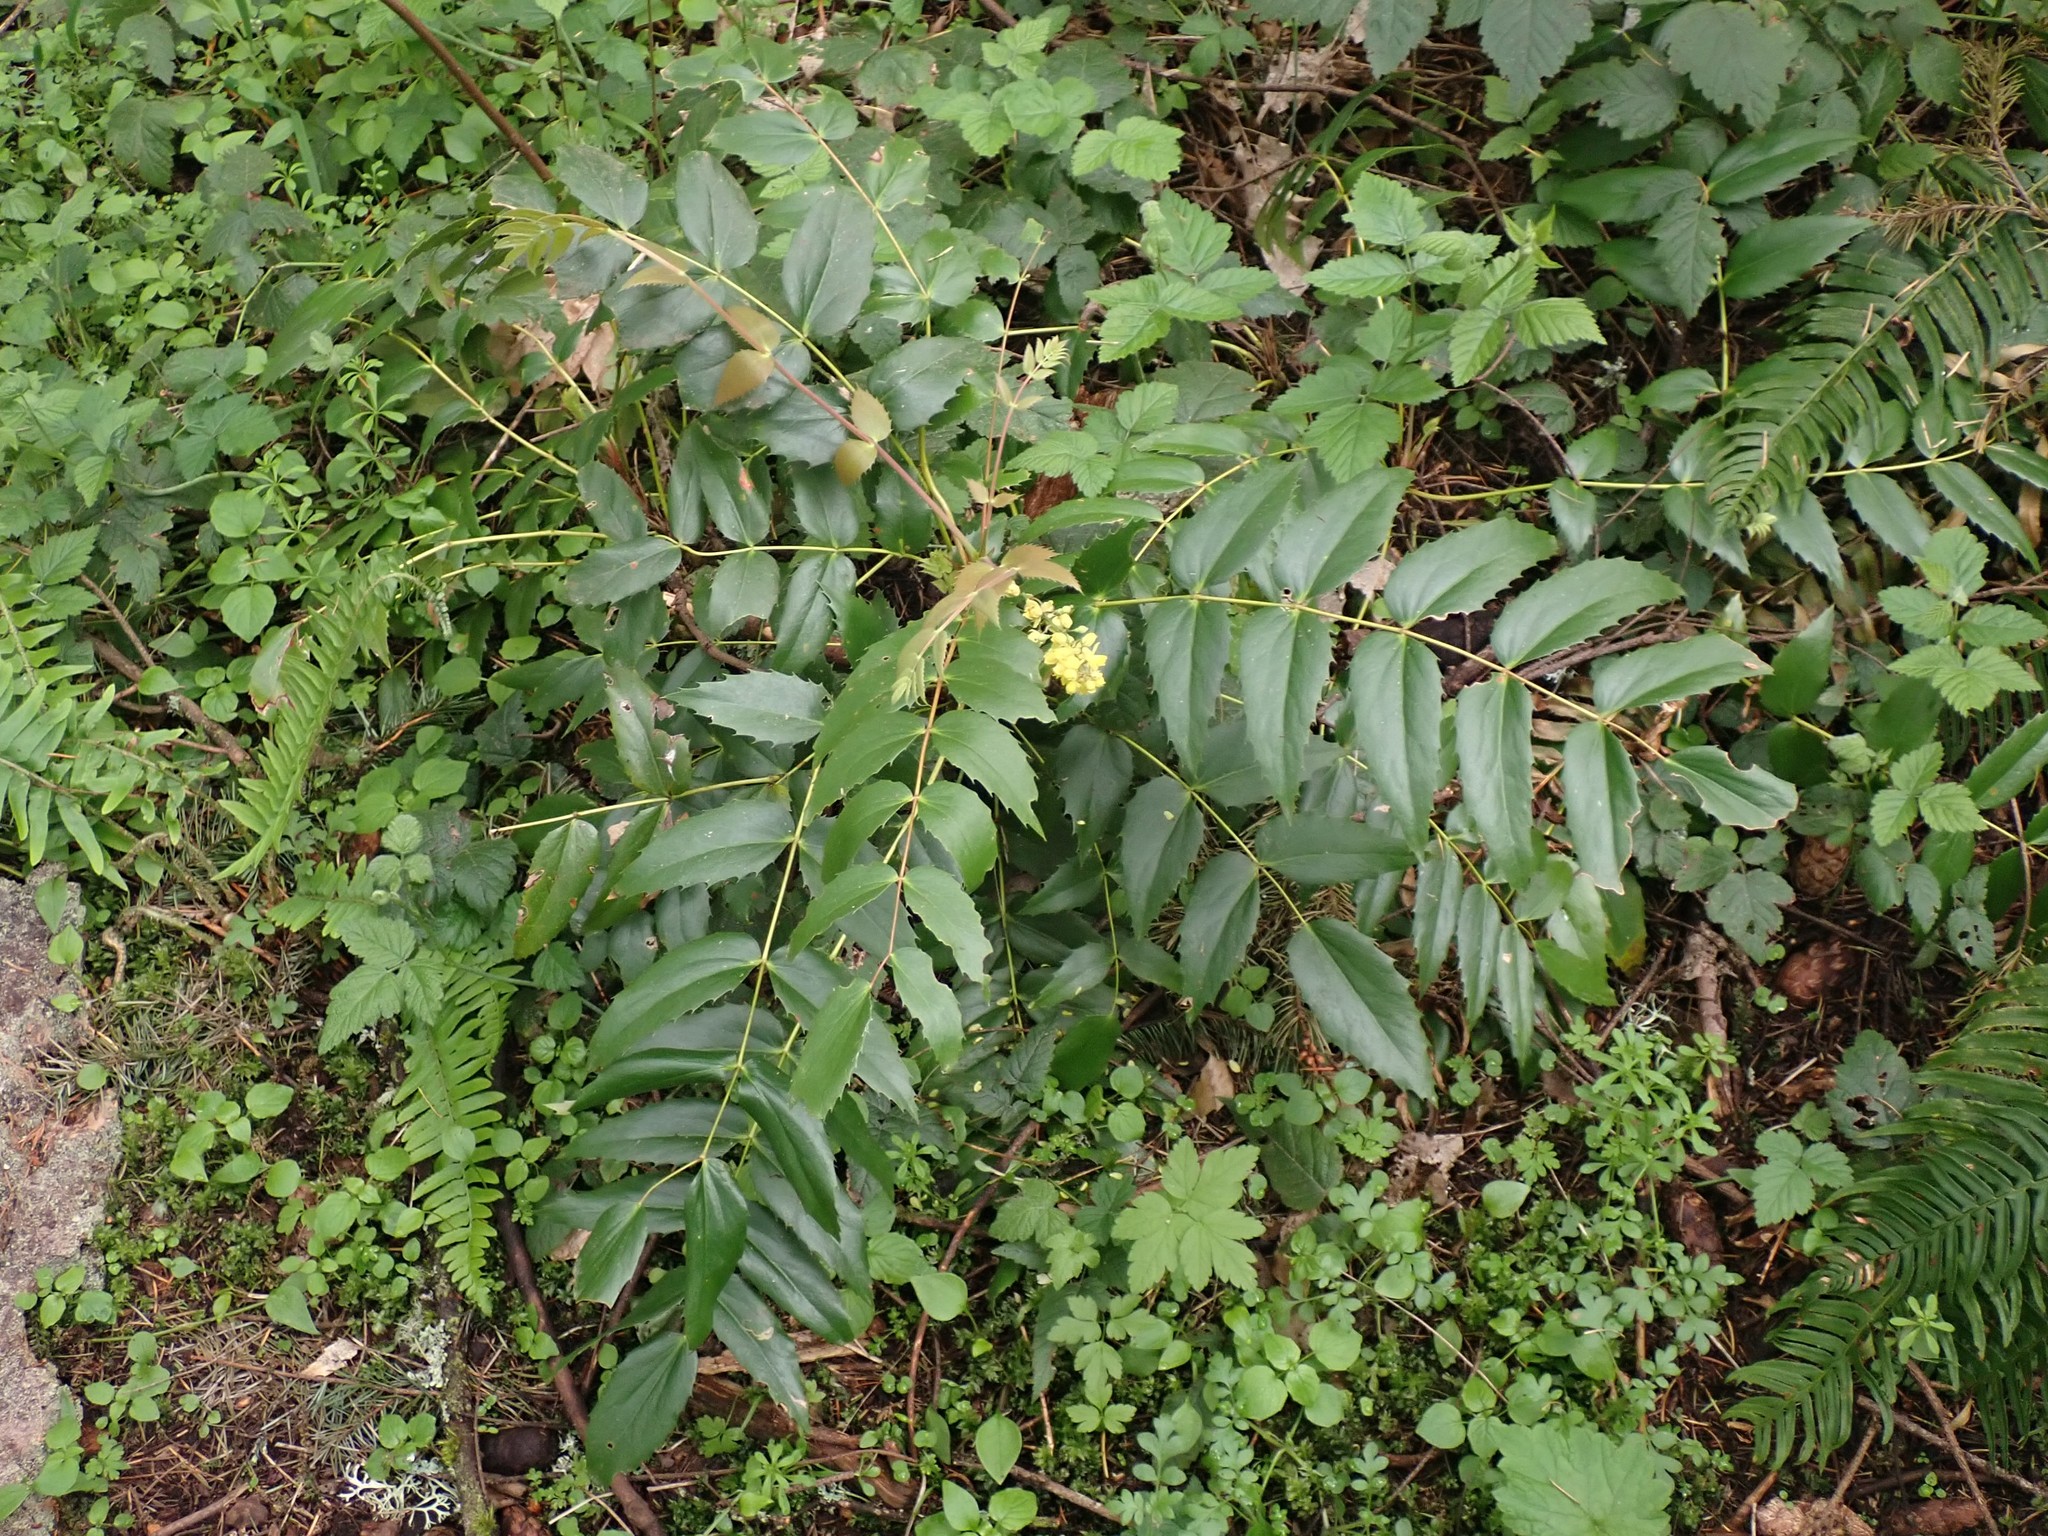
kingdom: Plantae
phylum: Tracheophyta
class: Magnoliopsida
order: Ranunculales
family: Berberidaceae
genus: Mahonia
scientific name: Mahonia nervosa
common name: Cascade oregon-grape
